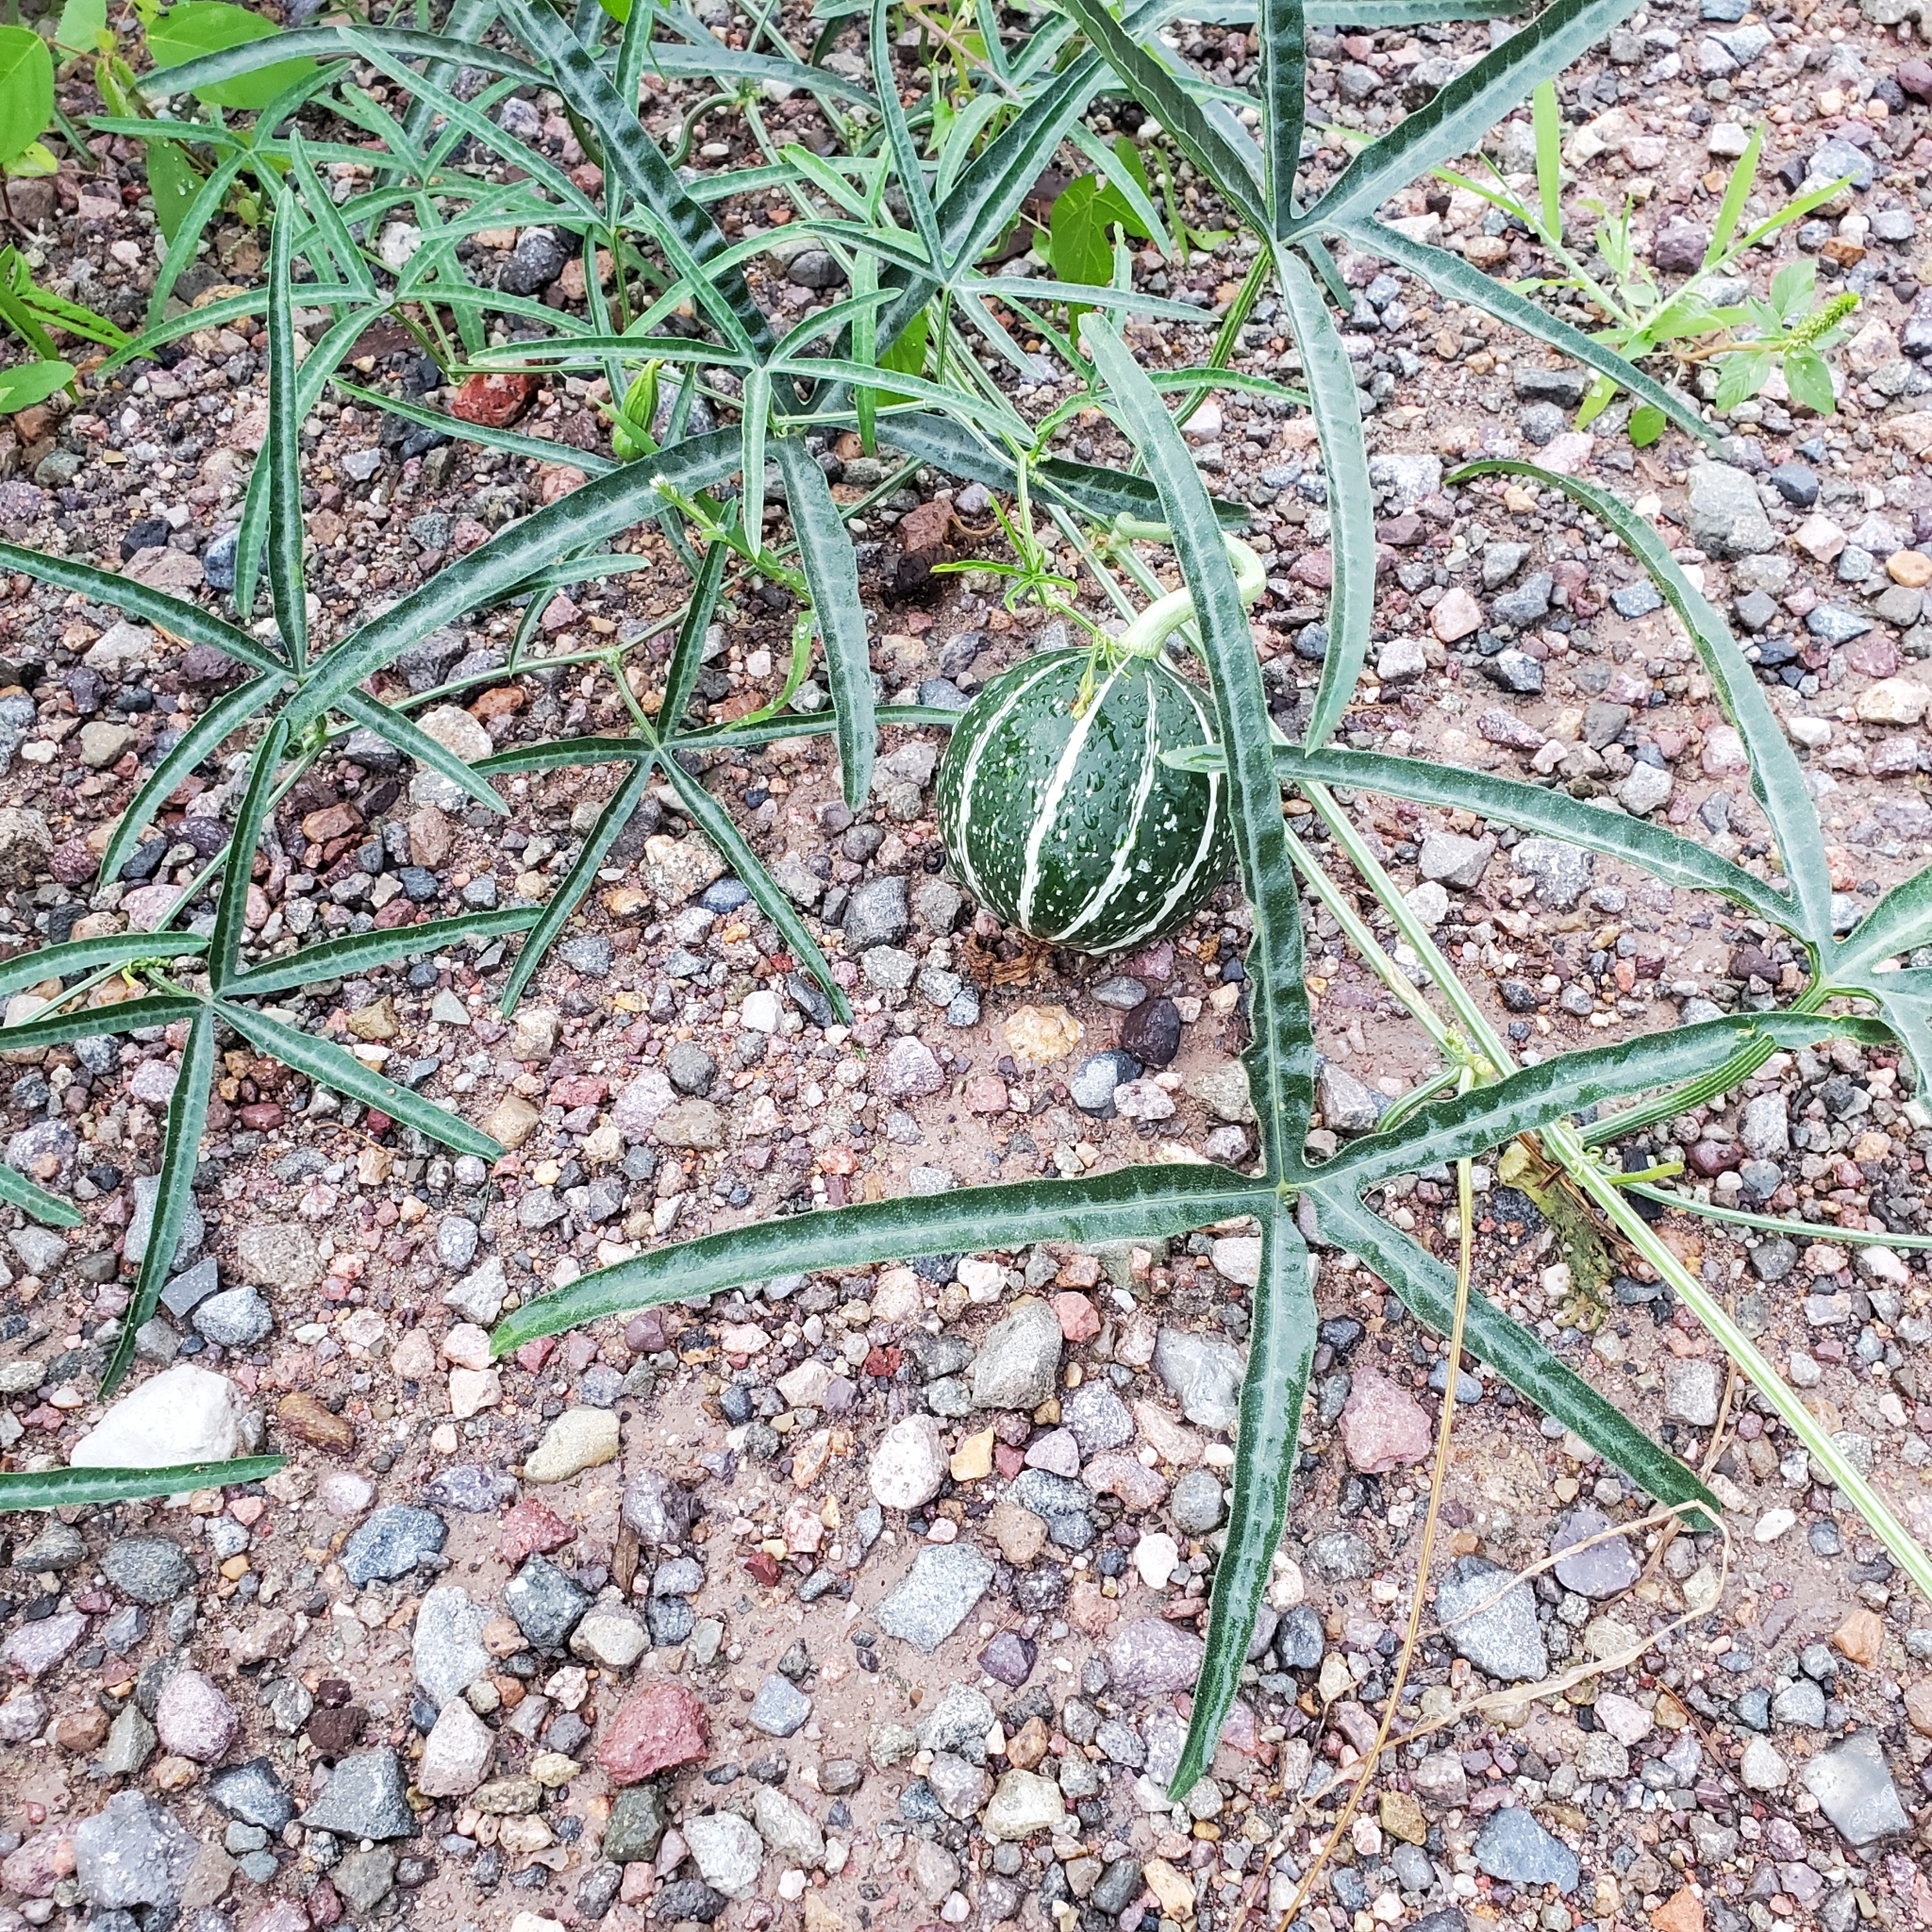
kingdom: Plantae
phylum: Tracheophyta
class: Magnoliopsida
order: Cucurbitales
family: Cucurbitaceae
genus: Cucurbita
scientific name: Cucurbita digitata
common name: Finger-leaf gourd
